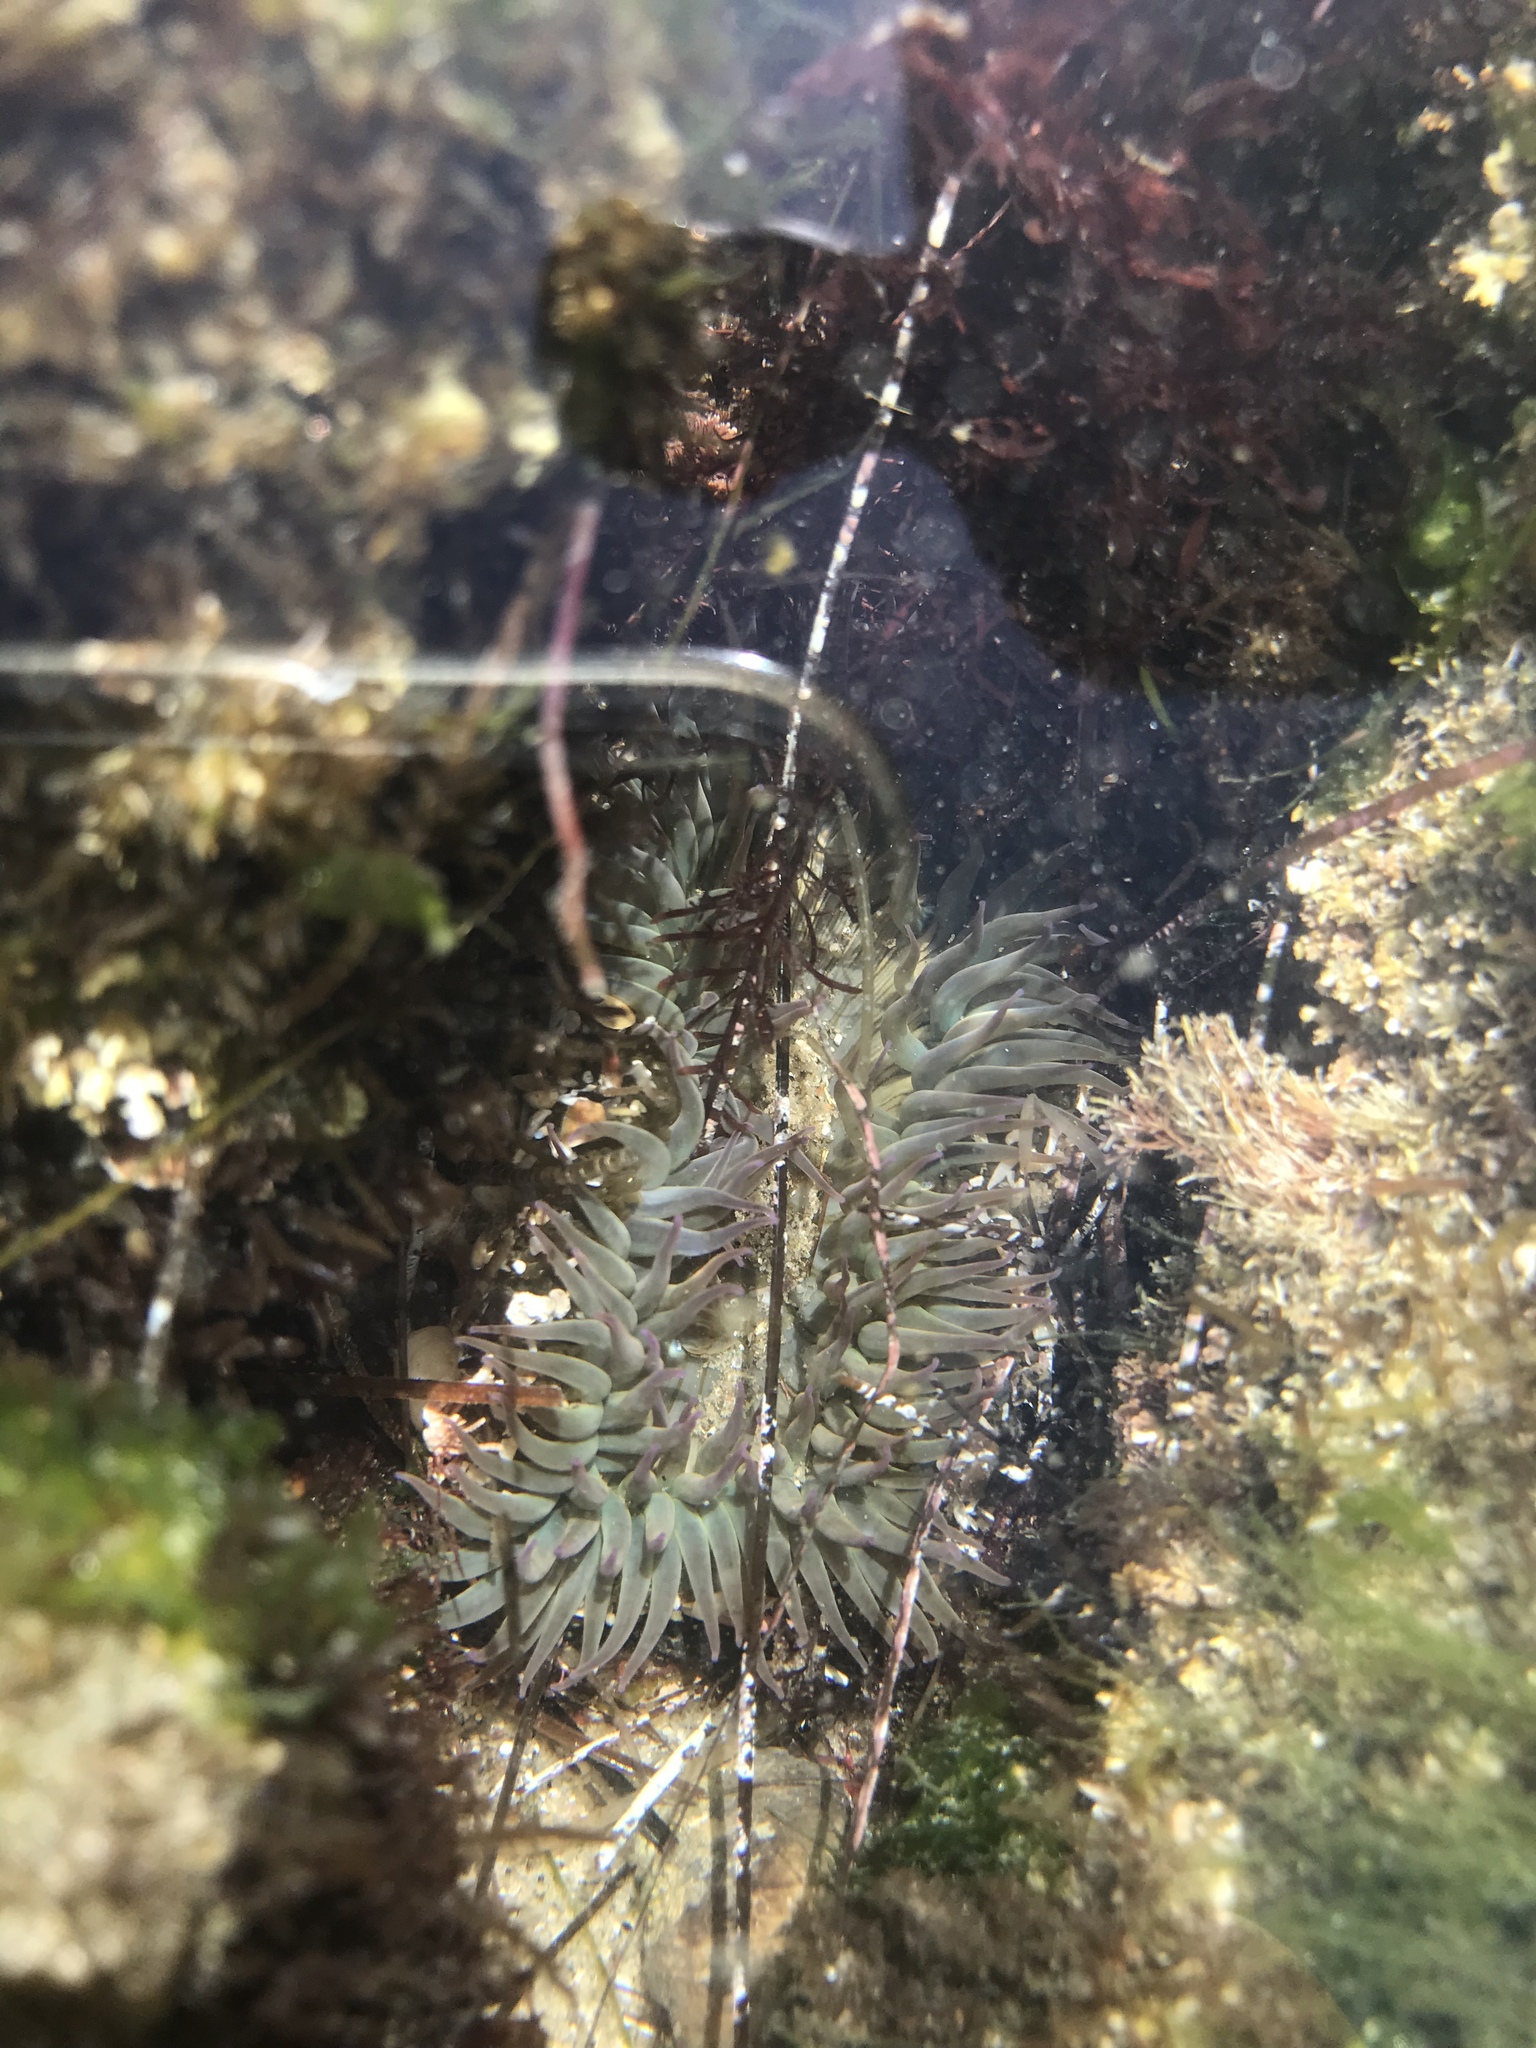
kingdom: Animalia
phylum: Cnidaria
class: Anthozoa
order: Actiniaria
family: Actiniidae
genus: Anthopleura
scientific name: Anthopleura sola
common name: Sun anemone
